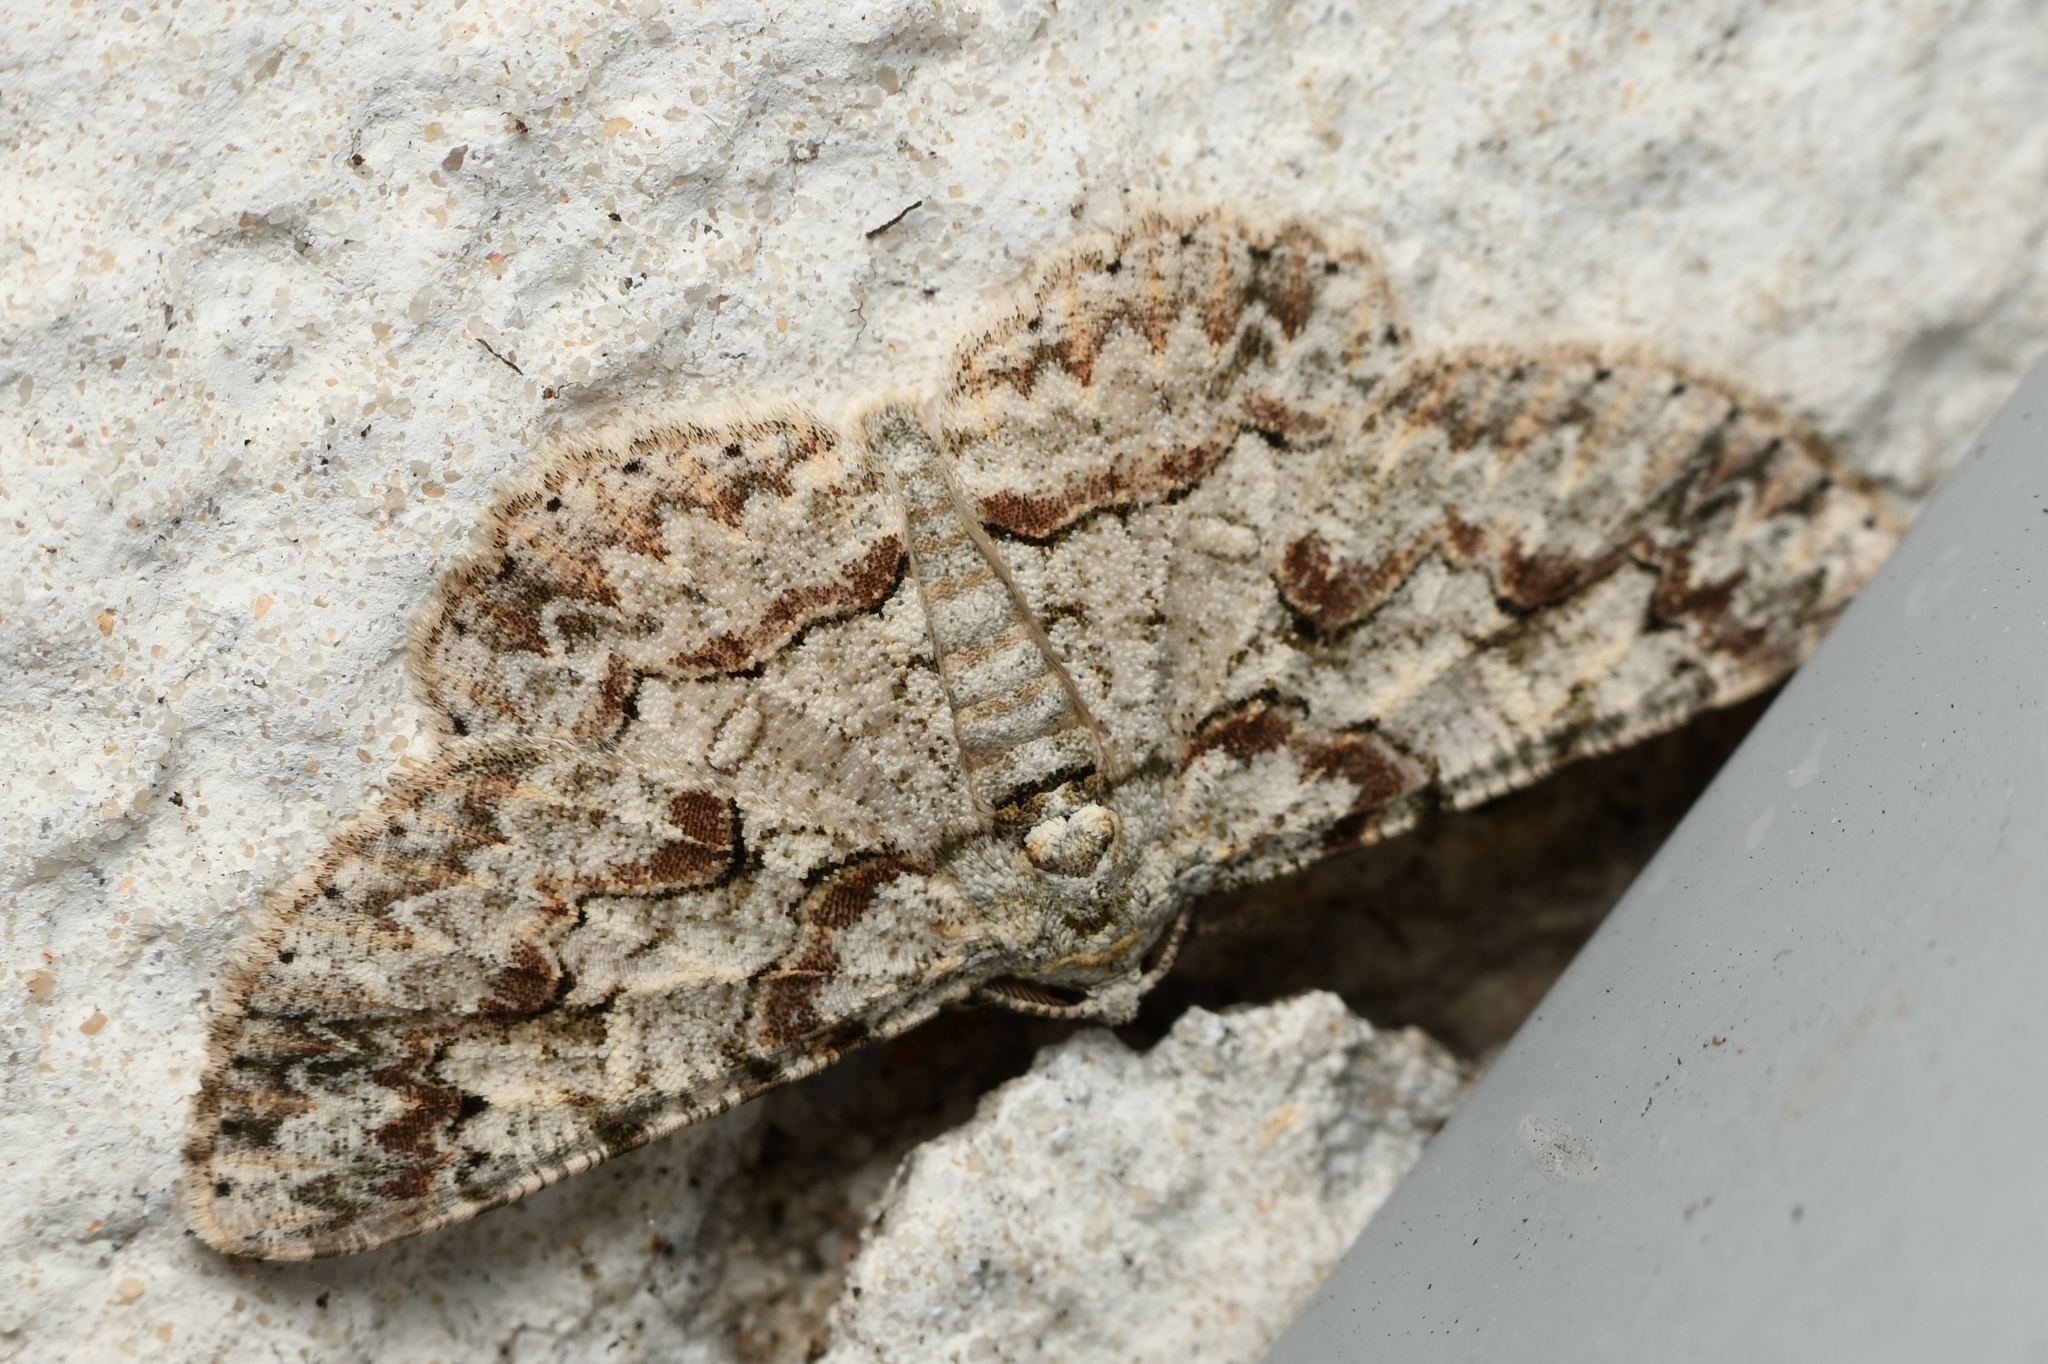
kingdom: Animalia
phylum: Arthropoda
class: Insecta
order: Lepidoptera
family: Geometridae
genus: Iridopsis
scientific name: Iridopsis defectaria
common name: Brown-shaded gray
